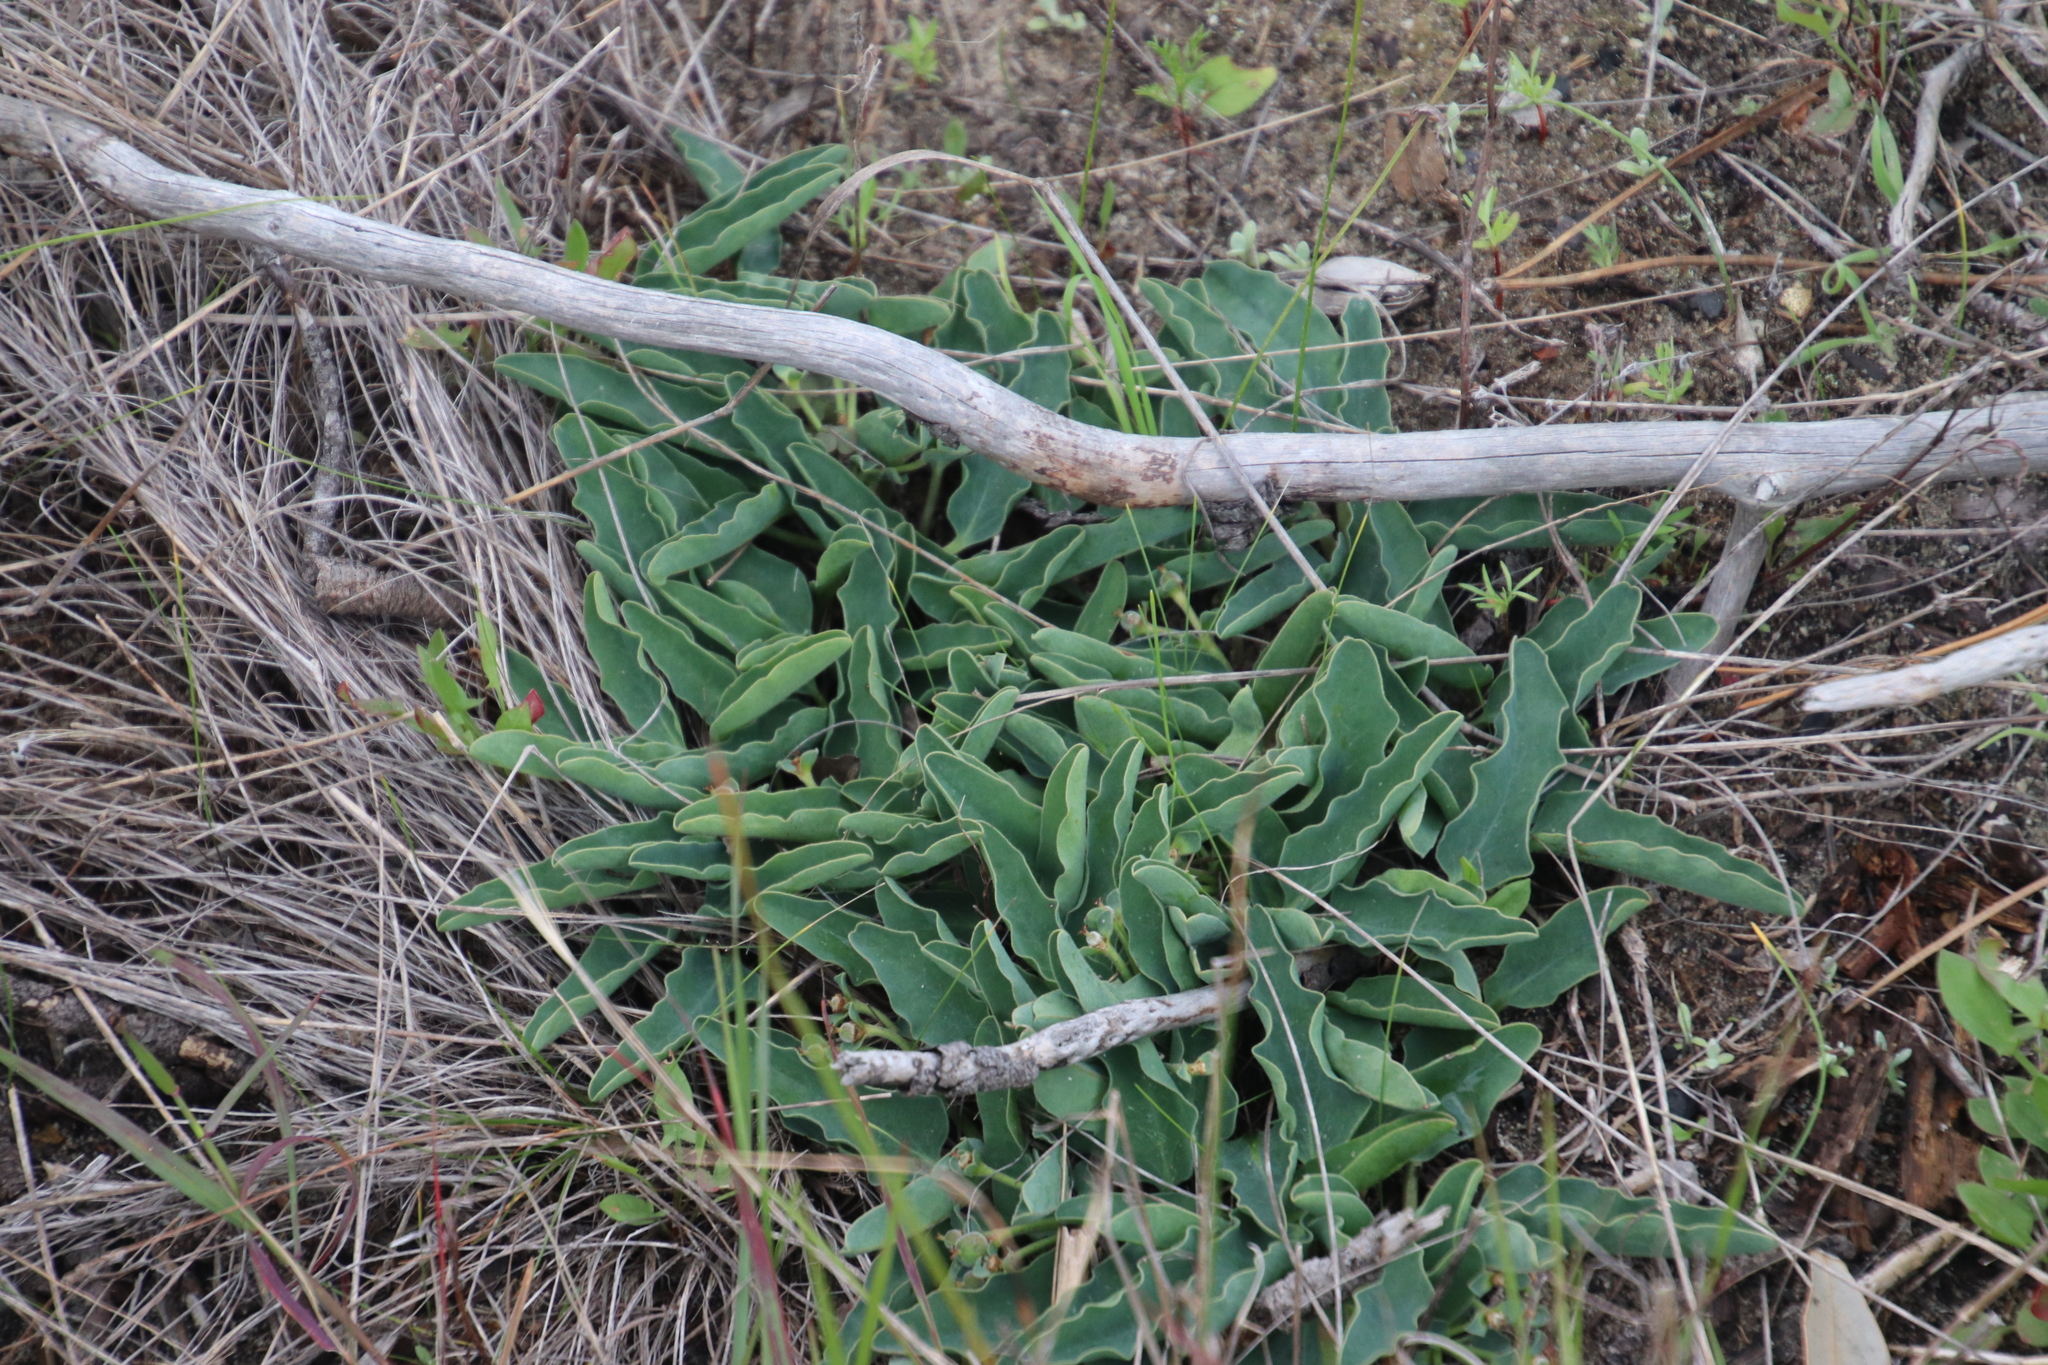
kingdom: Plantae
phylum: Tracheophyta
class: Magnoliopsida
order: Malpighiales
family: Euphorbiaceae
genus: Euphorbia
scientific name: Euphorbia tuberosa
